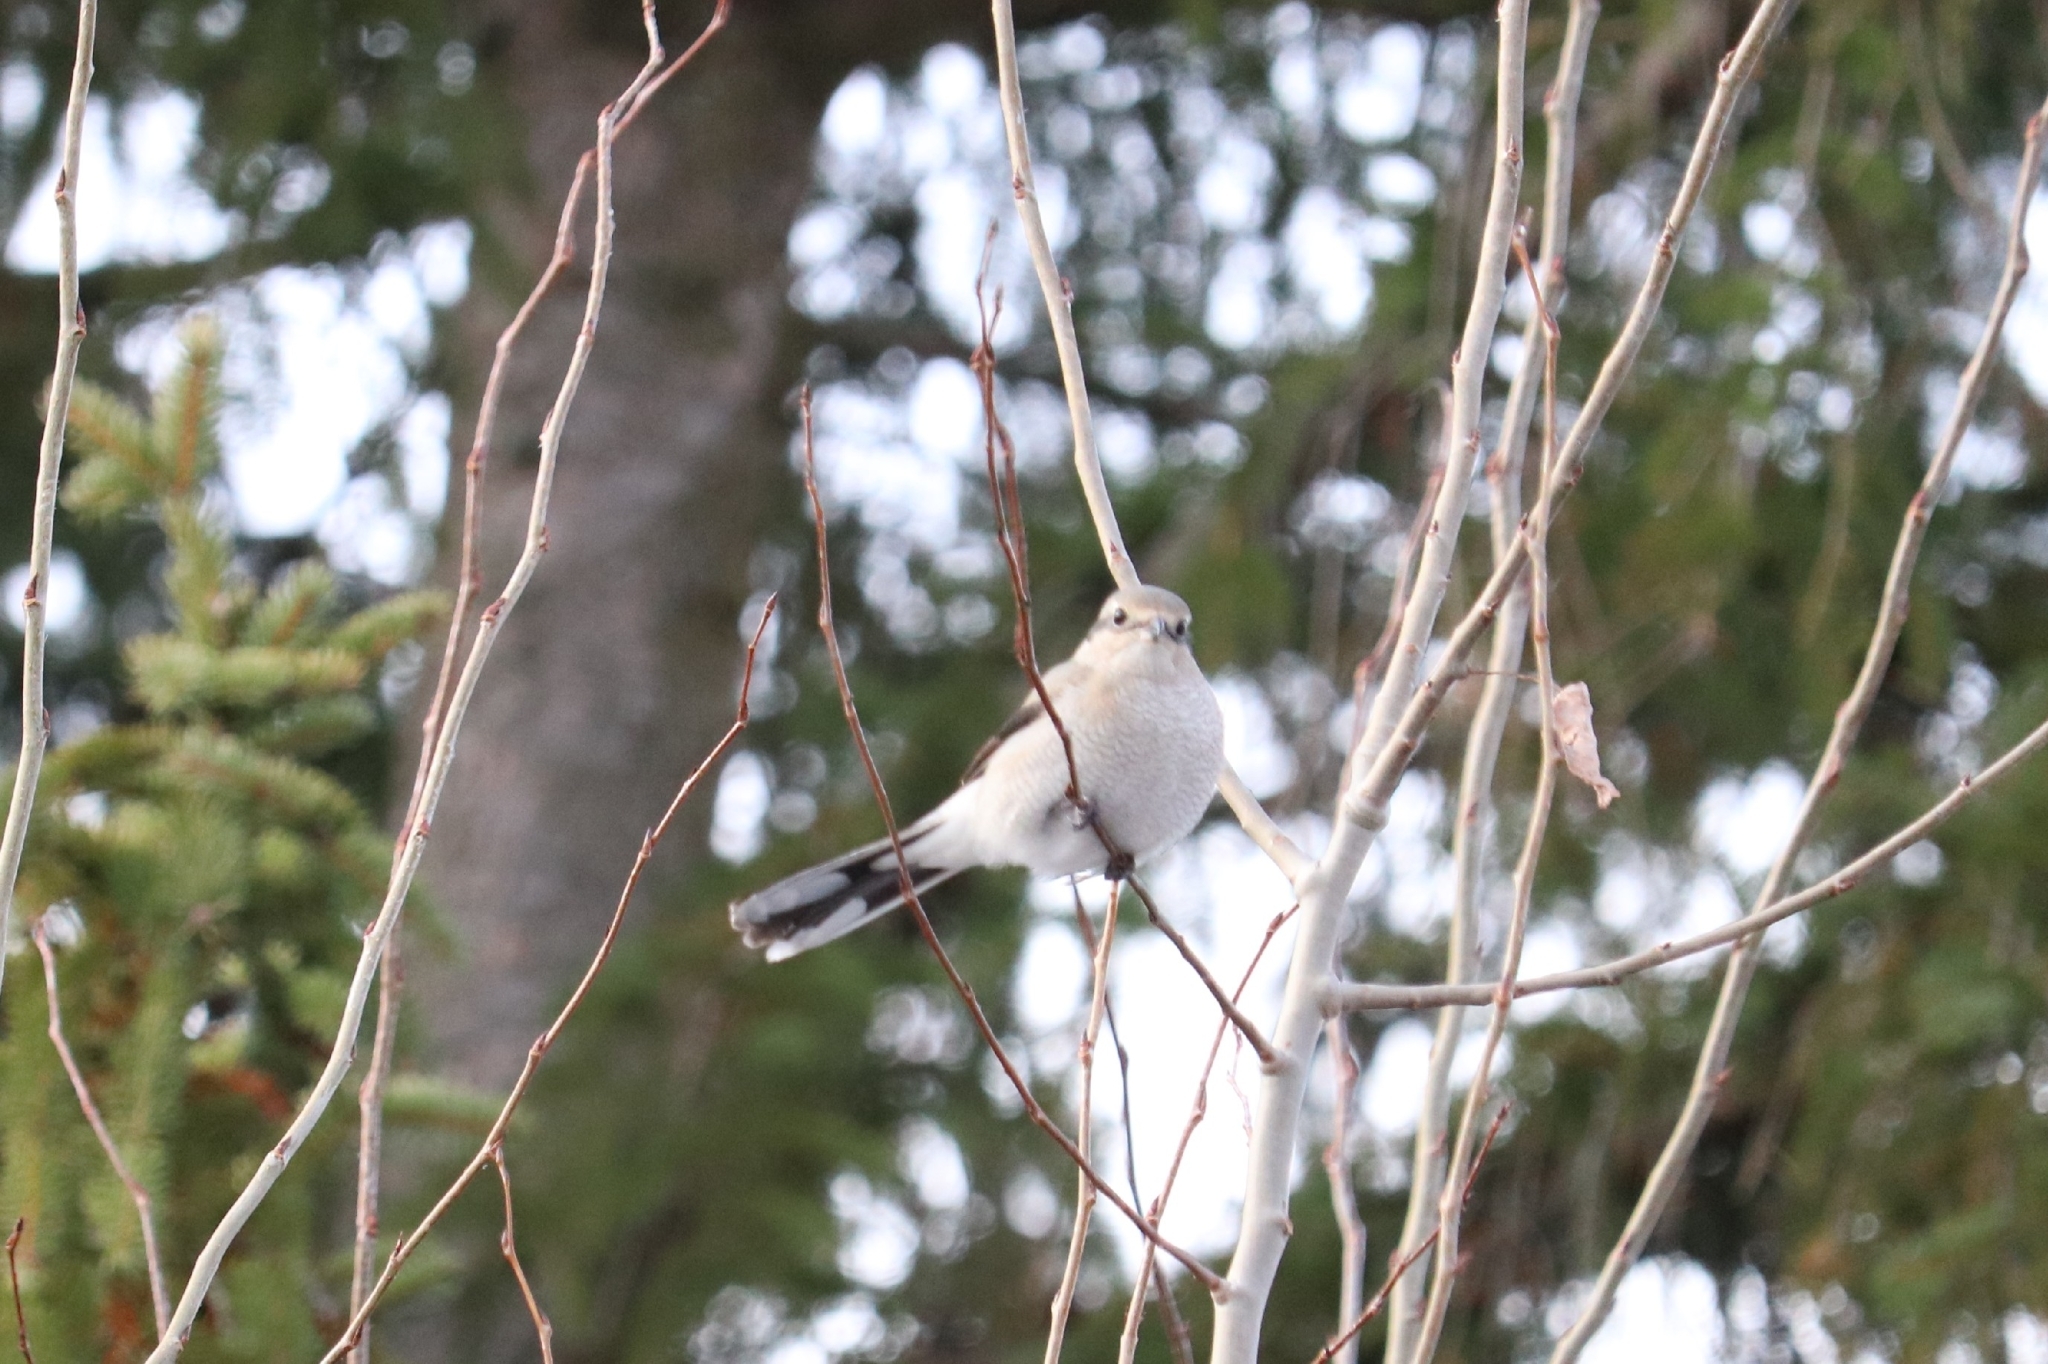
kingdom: Animalia
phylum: Chordata
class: Aves
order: Passeriformes
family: Laniidae
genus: Lanius
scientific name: Lanius borealis
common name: Northern shrike
